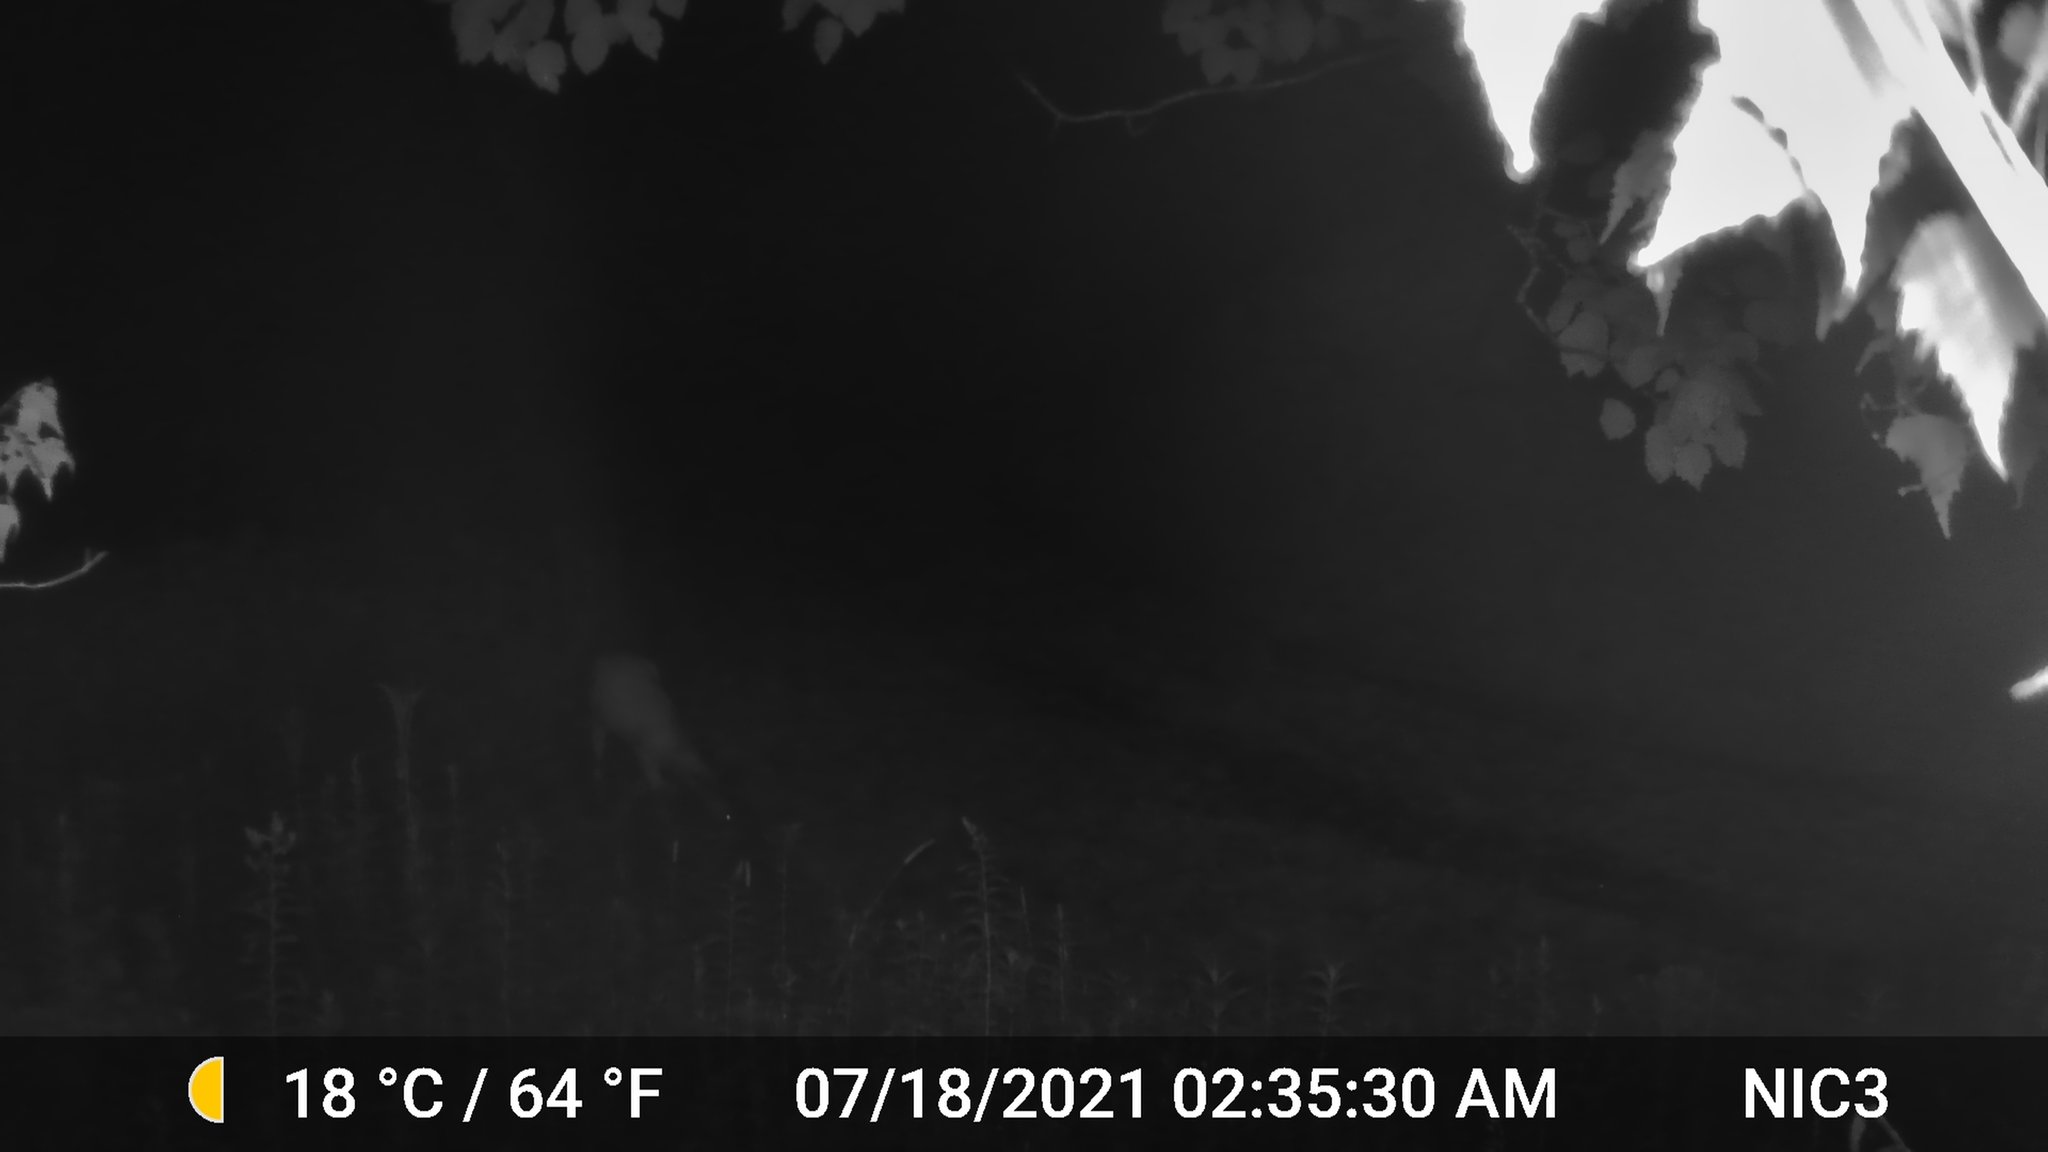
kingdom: Animalia
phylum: Chordata
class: Mammalia
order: Artiodactyla
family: Cervidae
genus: Odocoileus
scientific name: Odocoileus virginianus
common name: White-tailed deer
